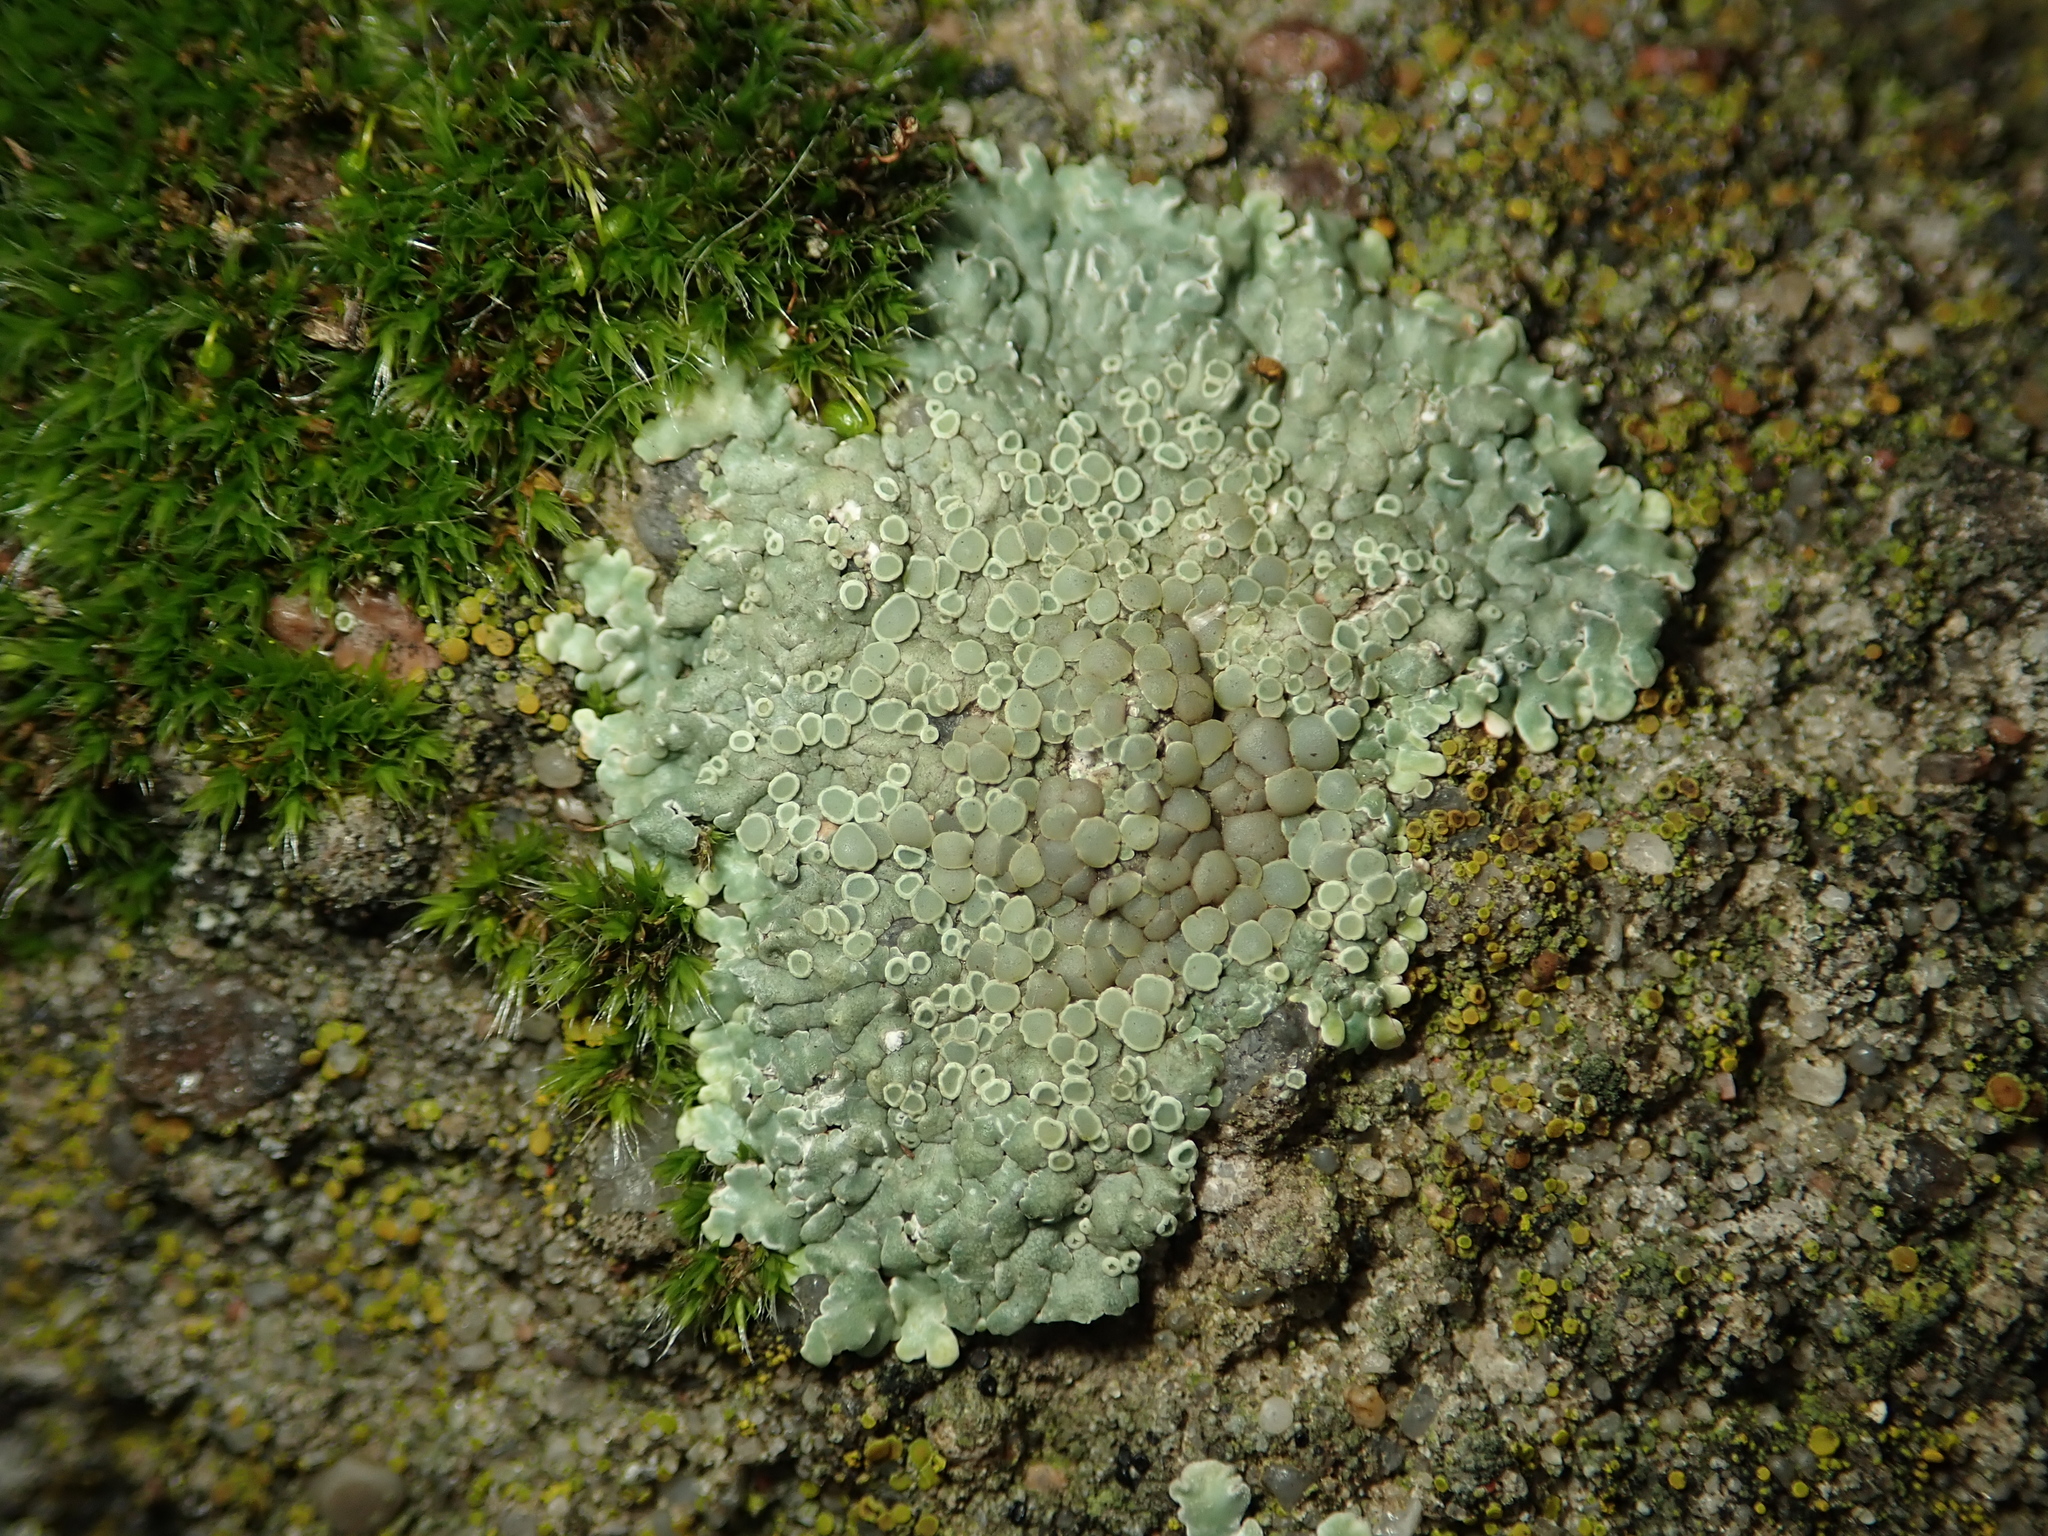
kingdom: Fungi
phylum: Ascomycota
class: Lecanoromycetes
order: Lecanorales
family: Lecanoraceae
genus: Protoparmeliopsis
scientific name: Protoparmeliopsis muralis
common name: Stonewall rim lichen
